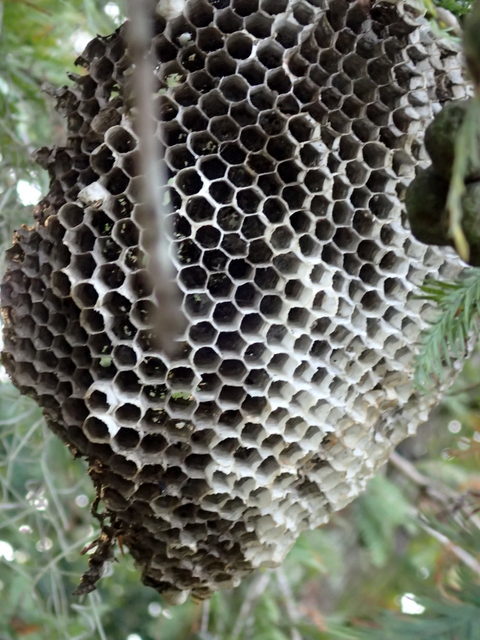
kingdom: Animalia
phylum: Arthropoda
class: Insecta
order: Hymenoptera
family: Eumenidae
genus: Polistes
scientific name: Polistes annularis
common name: Ringed paper wasp
